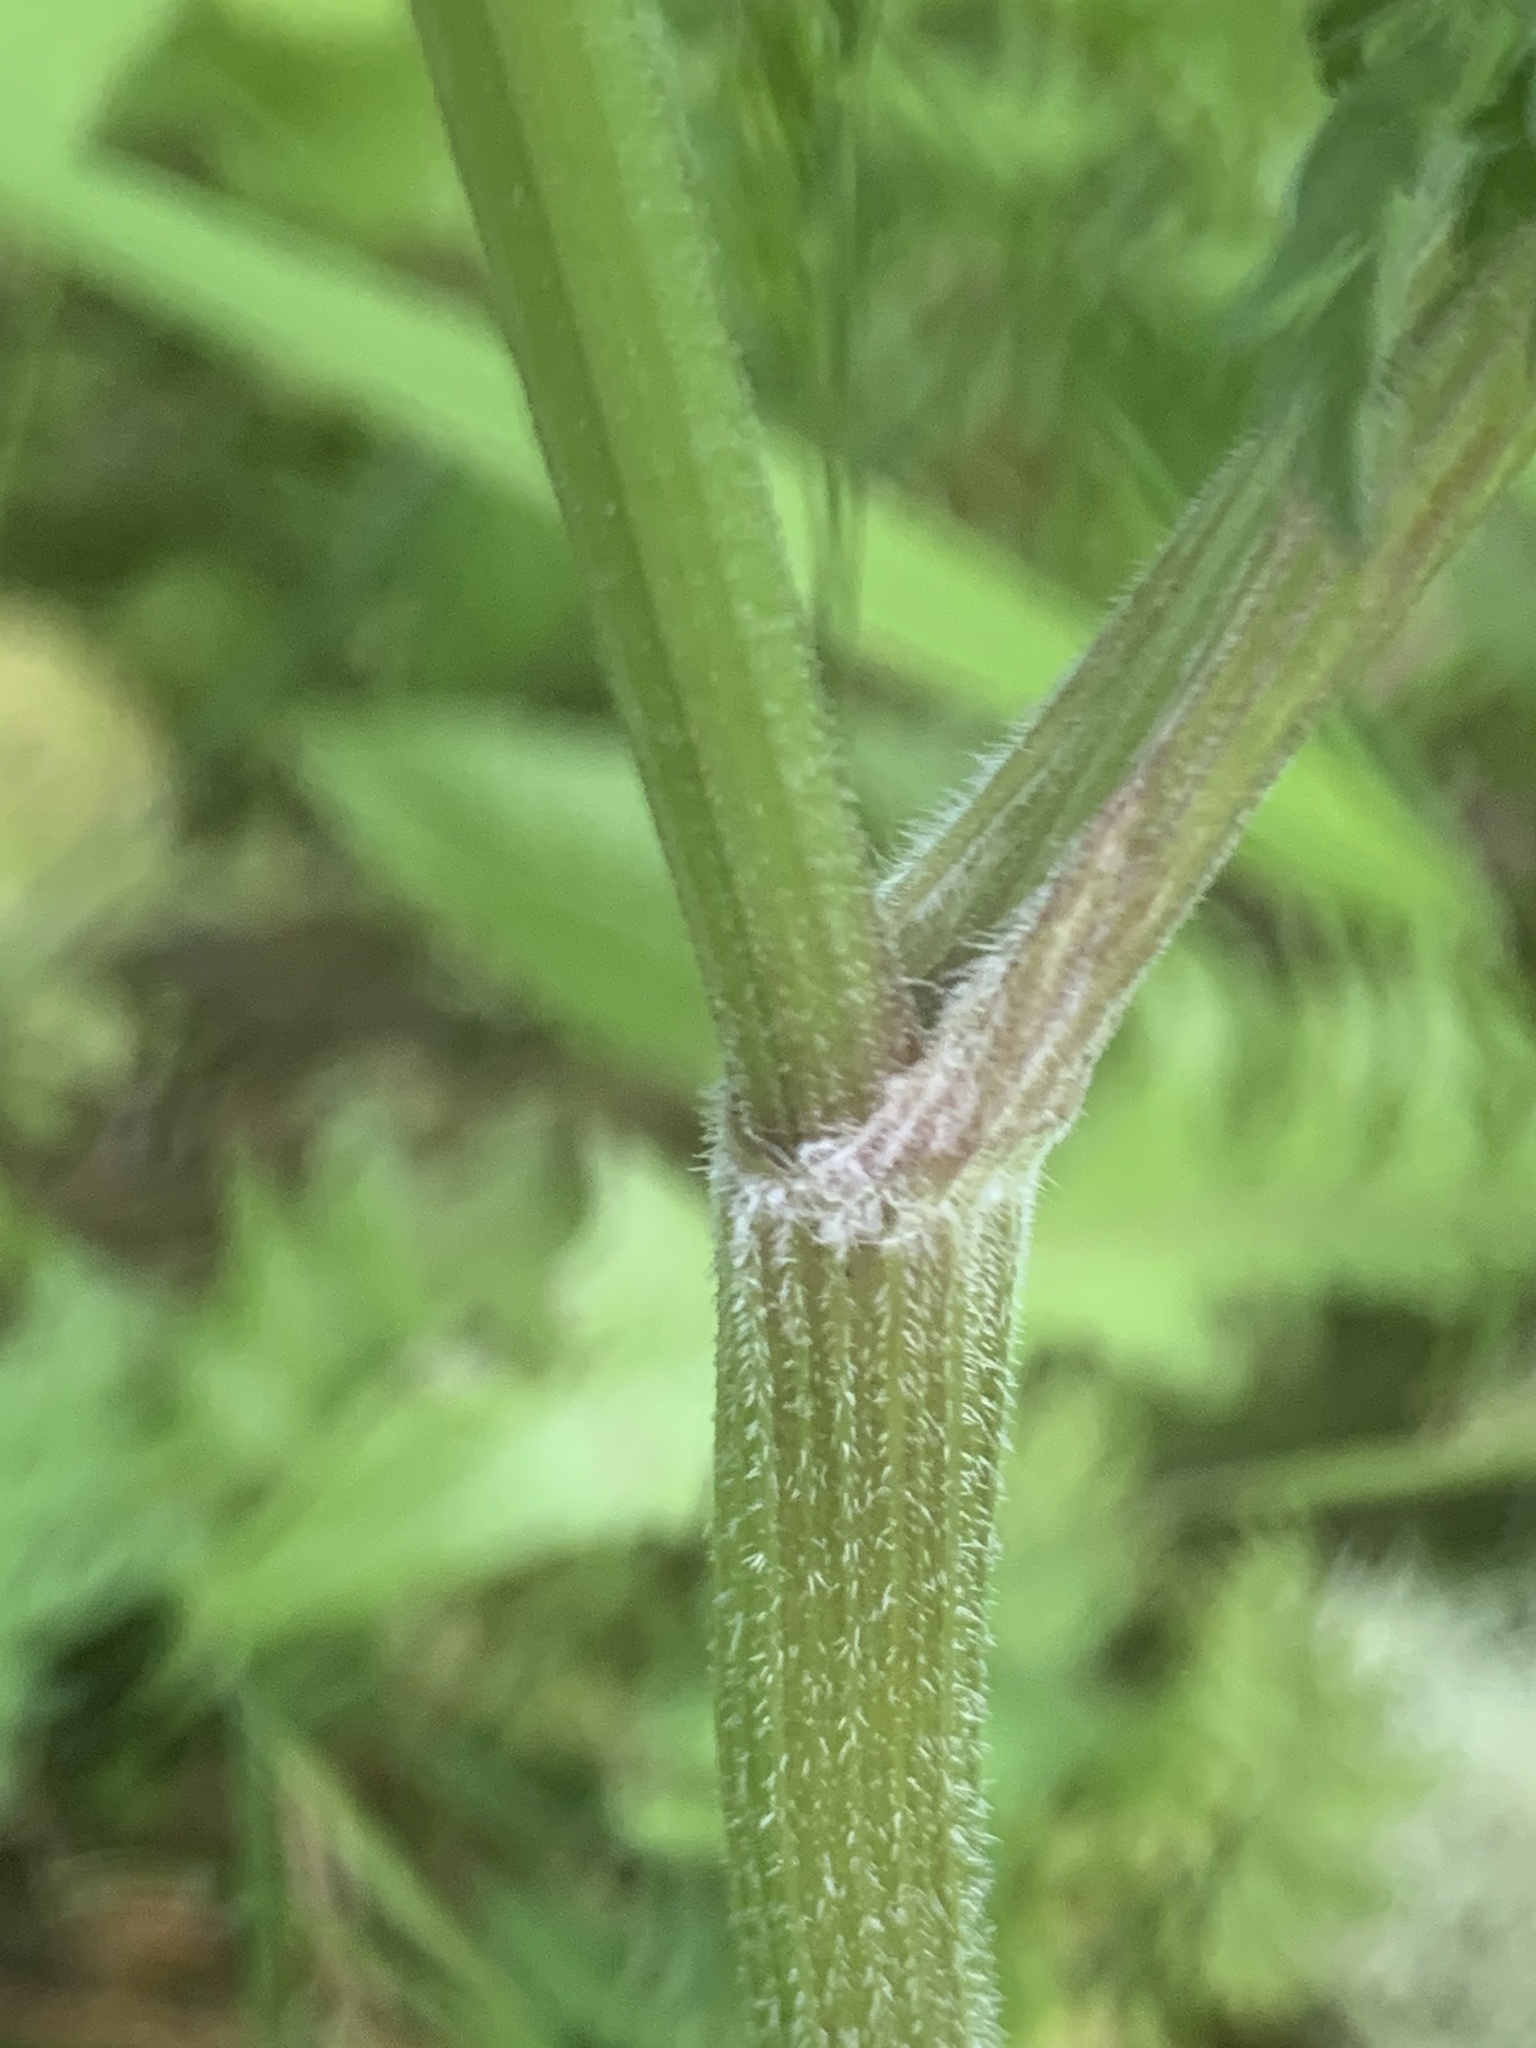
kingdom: Plantae
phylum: Tracheophyta
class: Magnoliopsida
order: Apiales
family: Apiaceae
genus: Anthriscus
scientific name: Anthriscus sylvestris
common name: Cow parsley
